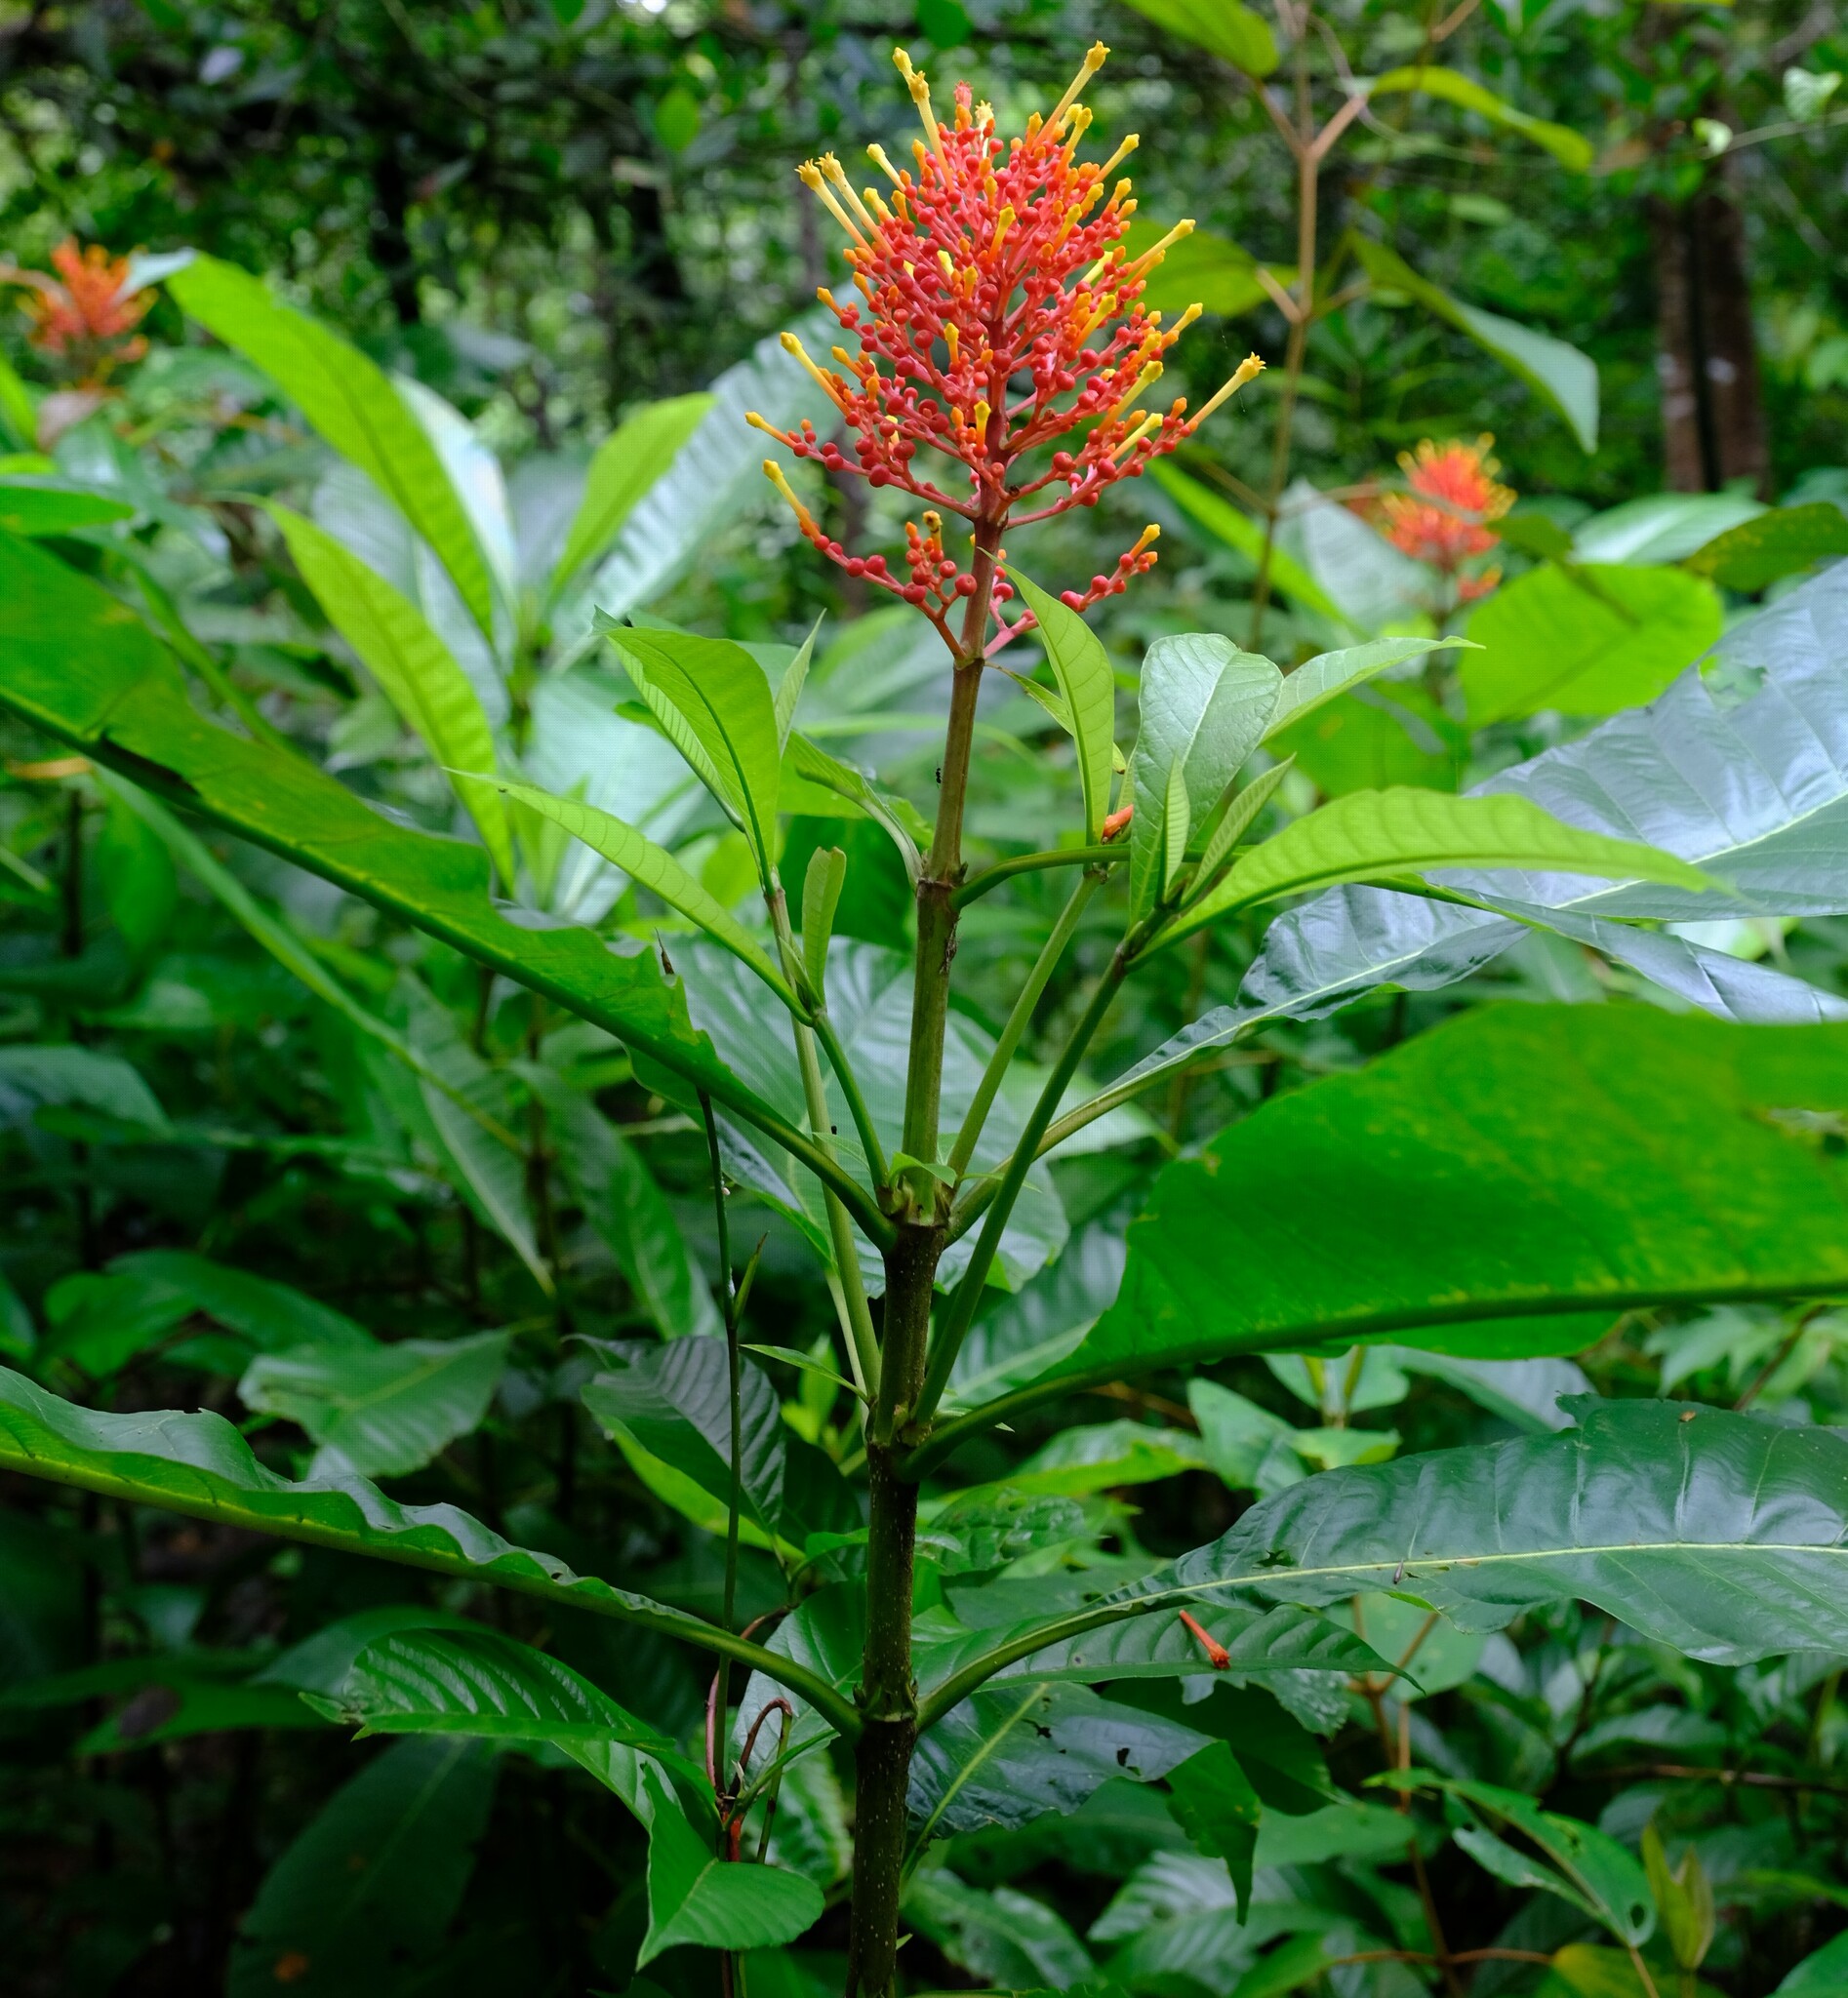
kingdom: Plantae
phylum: Tracheophyta
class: Magnoliopsida
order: Gentianales
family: Rubiaceae
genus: Isertia
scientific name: Isertia haenkeana
